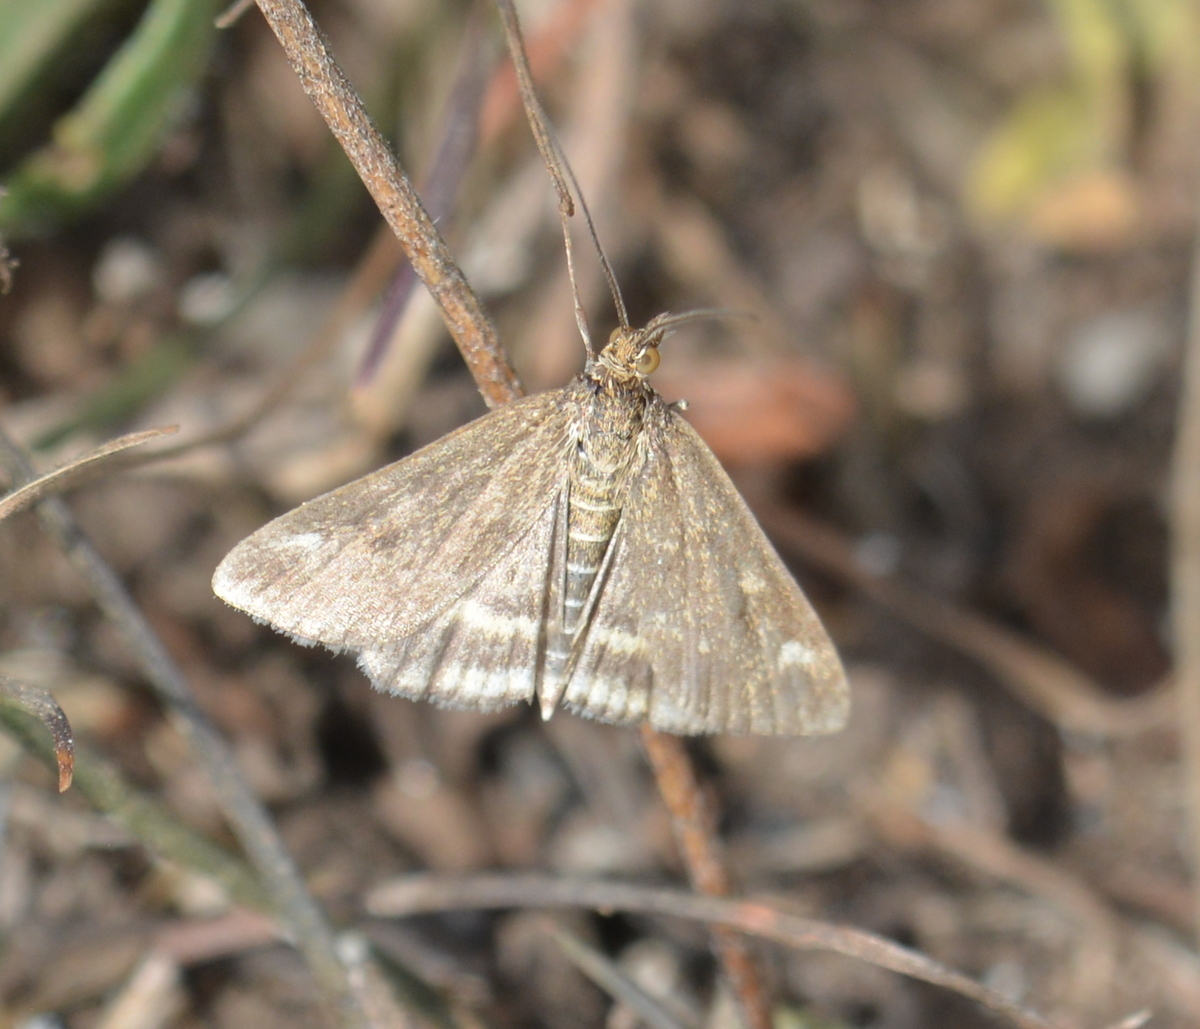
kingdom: Animalia
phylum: Arthropoda
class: Insecta
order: Lepidoptera
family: Crambidae
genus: Pyrausta
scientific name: Pyrausta despicata
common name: Straw-barred pearl
